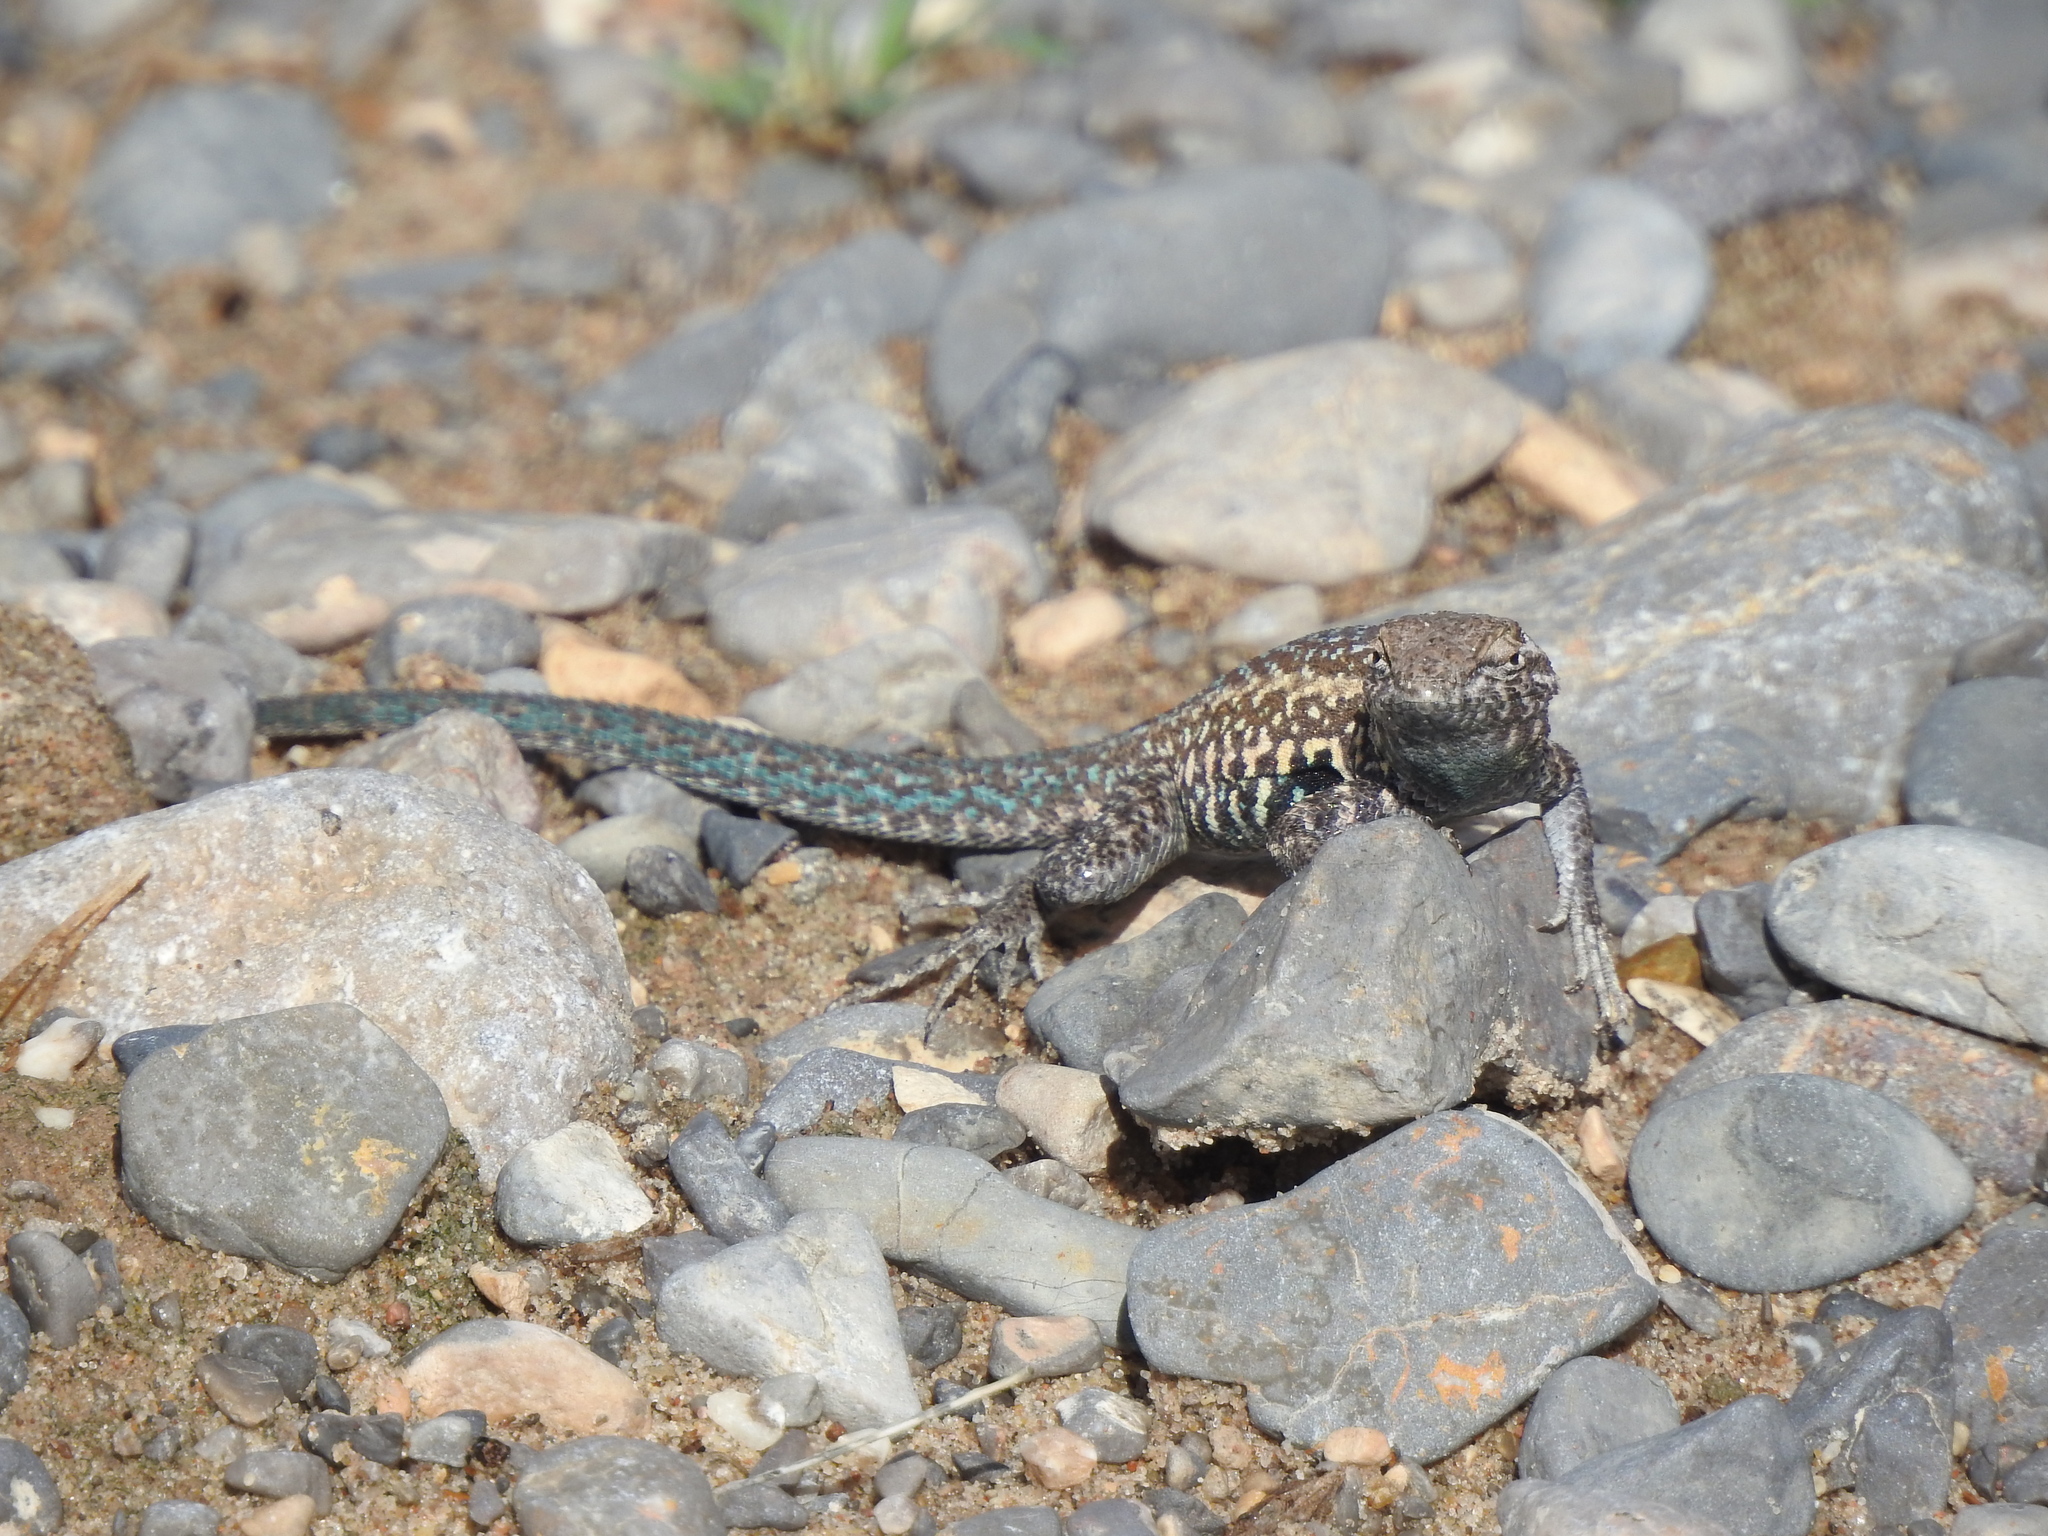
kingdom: Animalia
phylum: Chordata
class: Squamata
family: Phrynosomatidae
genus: Uta
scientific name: Uta stansburiana
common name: Side-blotched lizard
